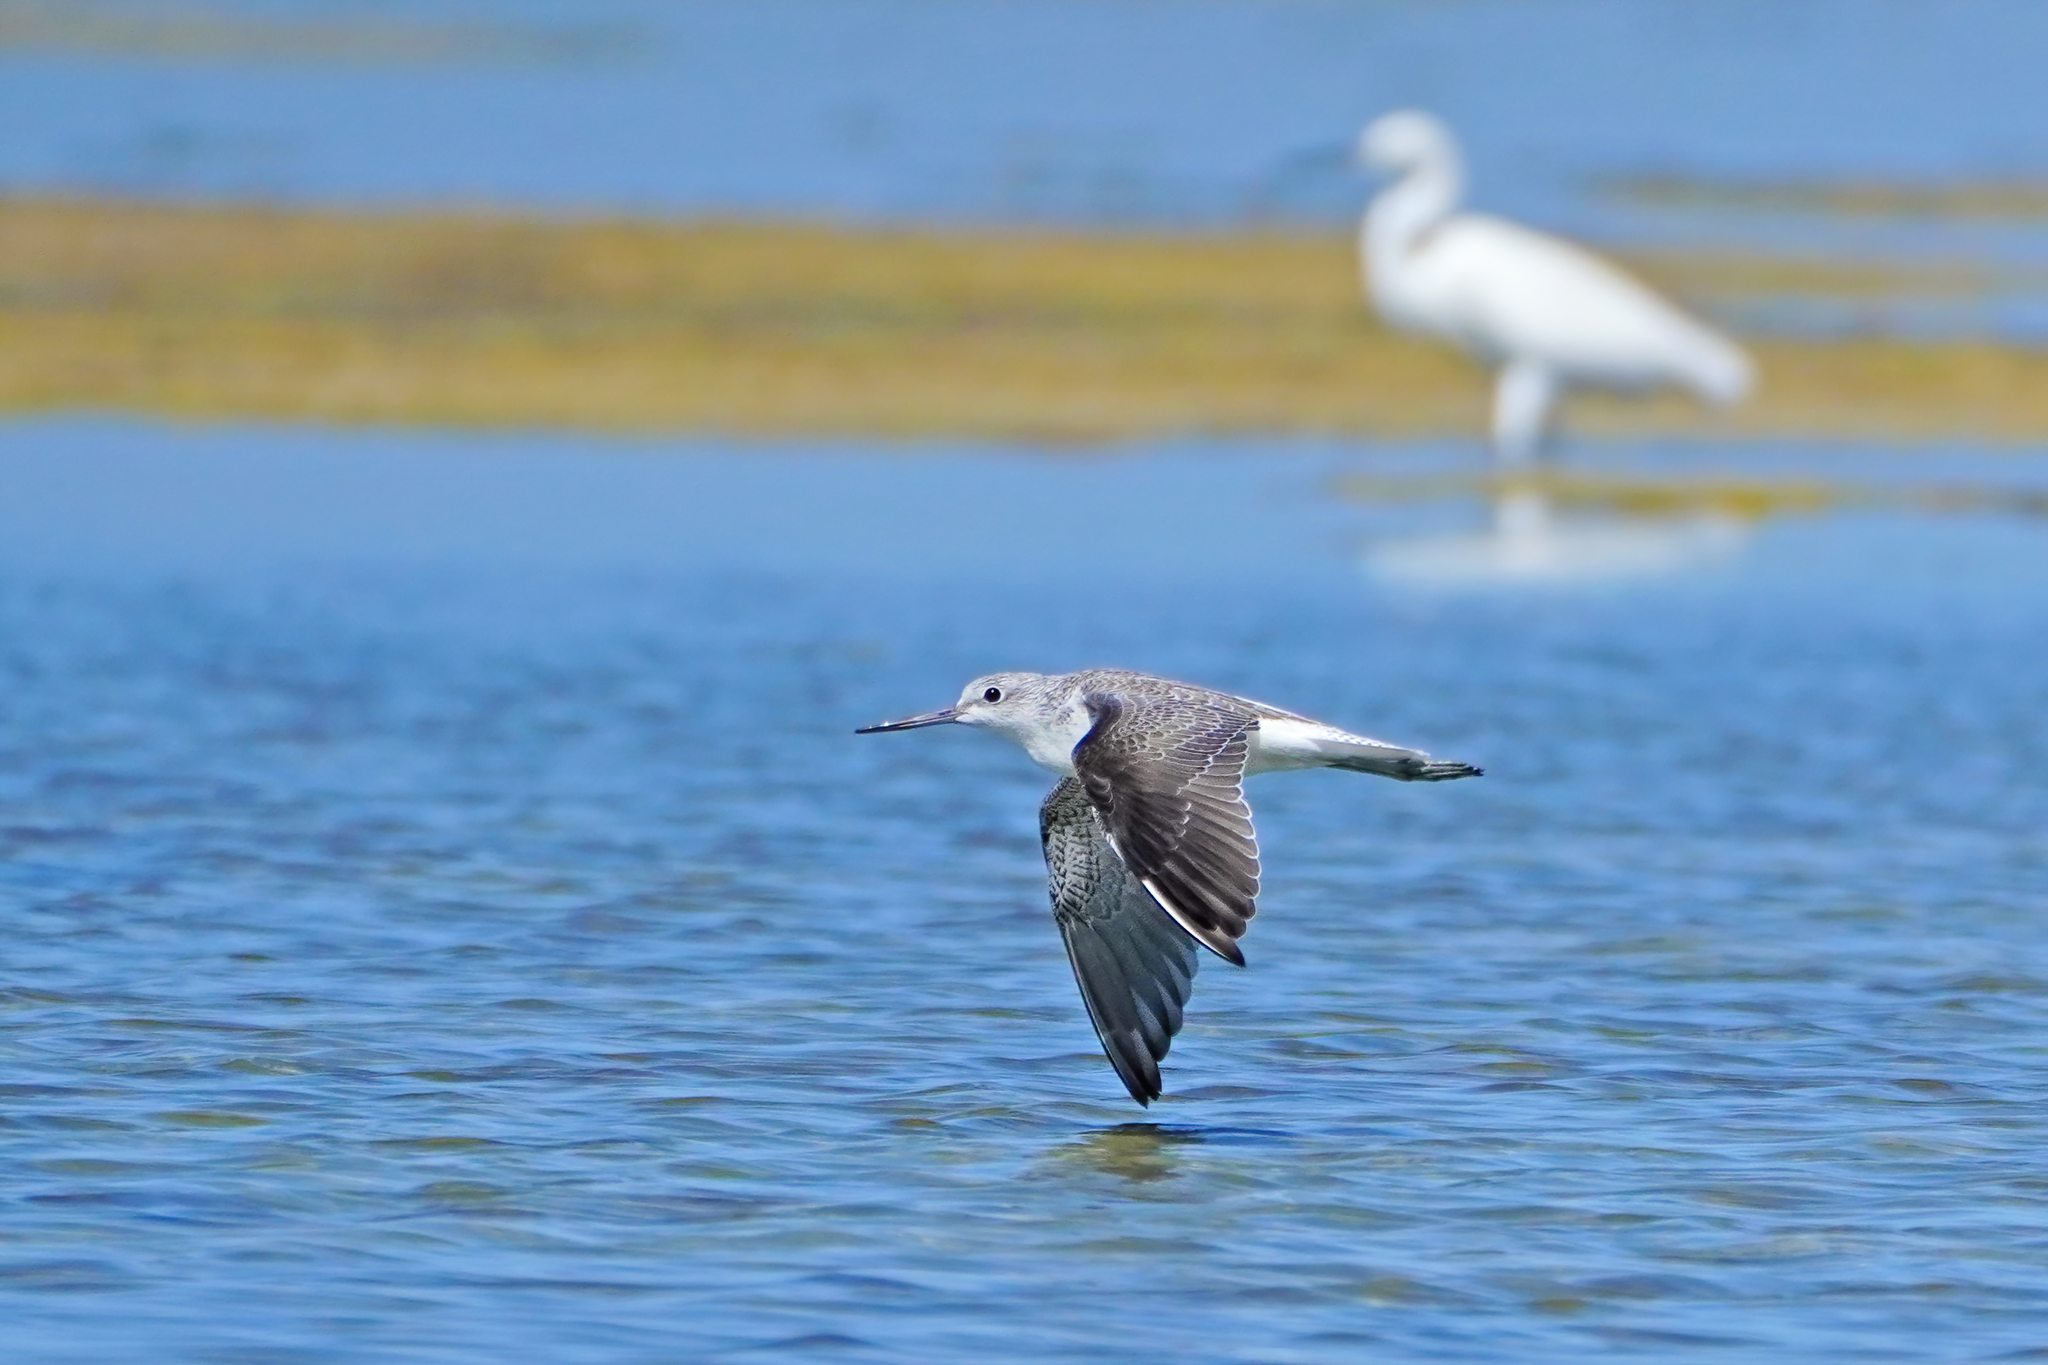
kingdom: Animalia
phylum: Chordata
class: Aves
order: Charadriiformes
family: Scolopacidae
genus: Tringa
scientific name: Tringa nebularia
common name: Common greenshank
